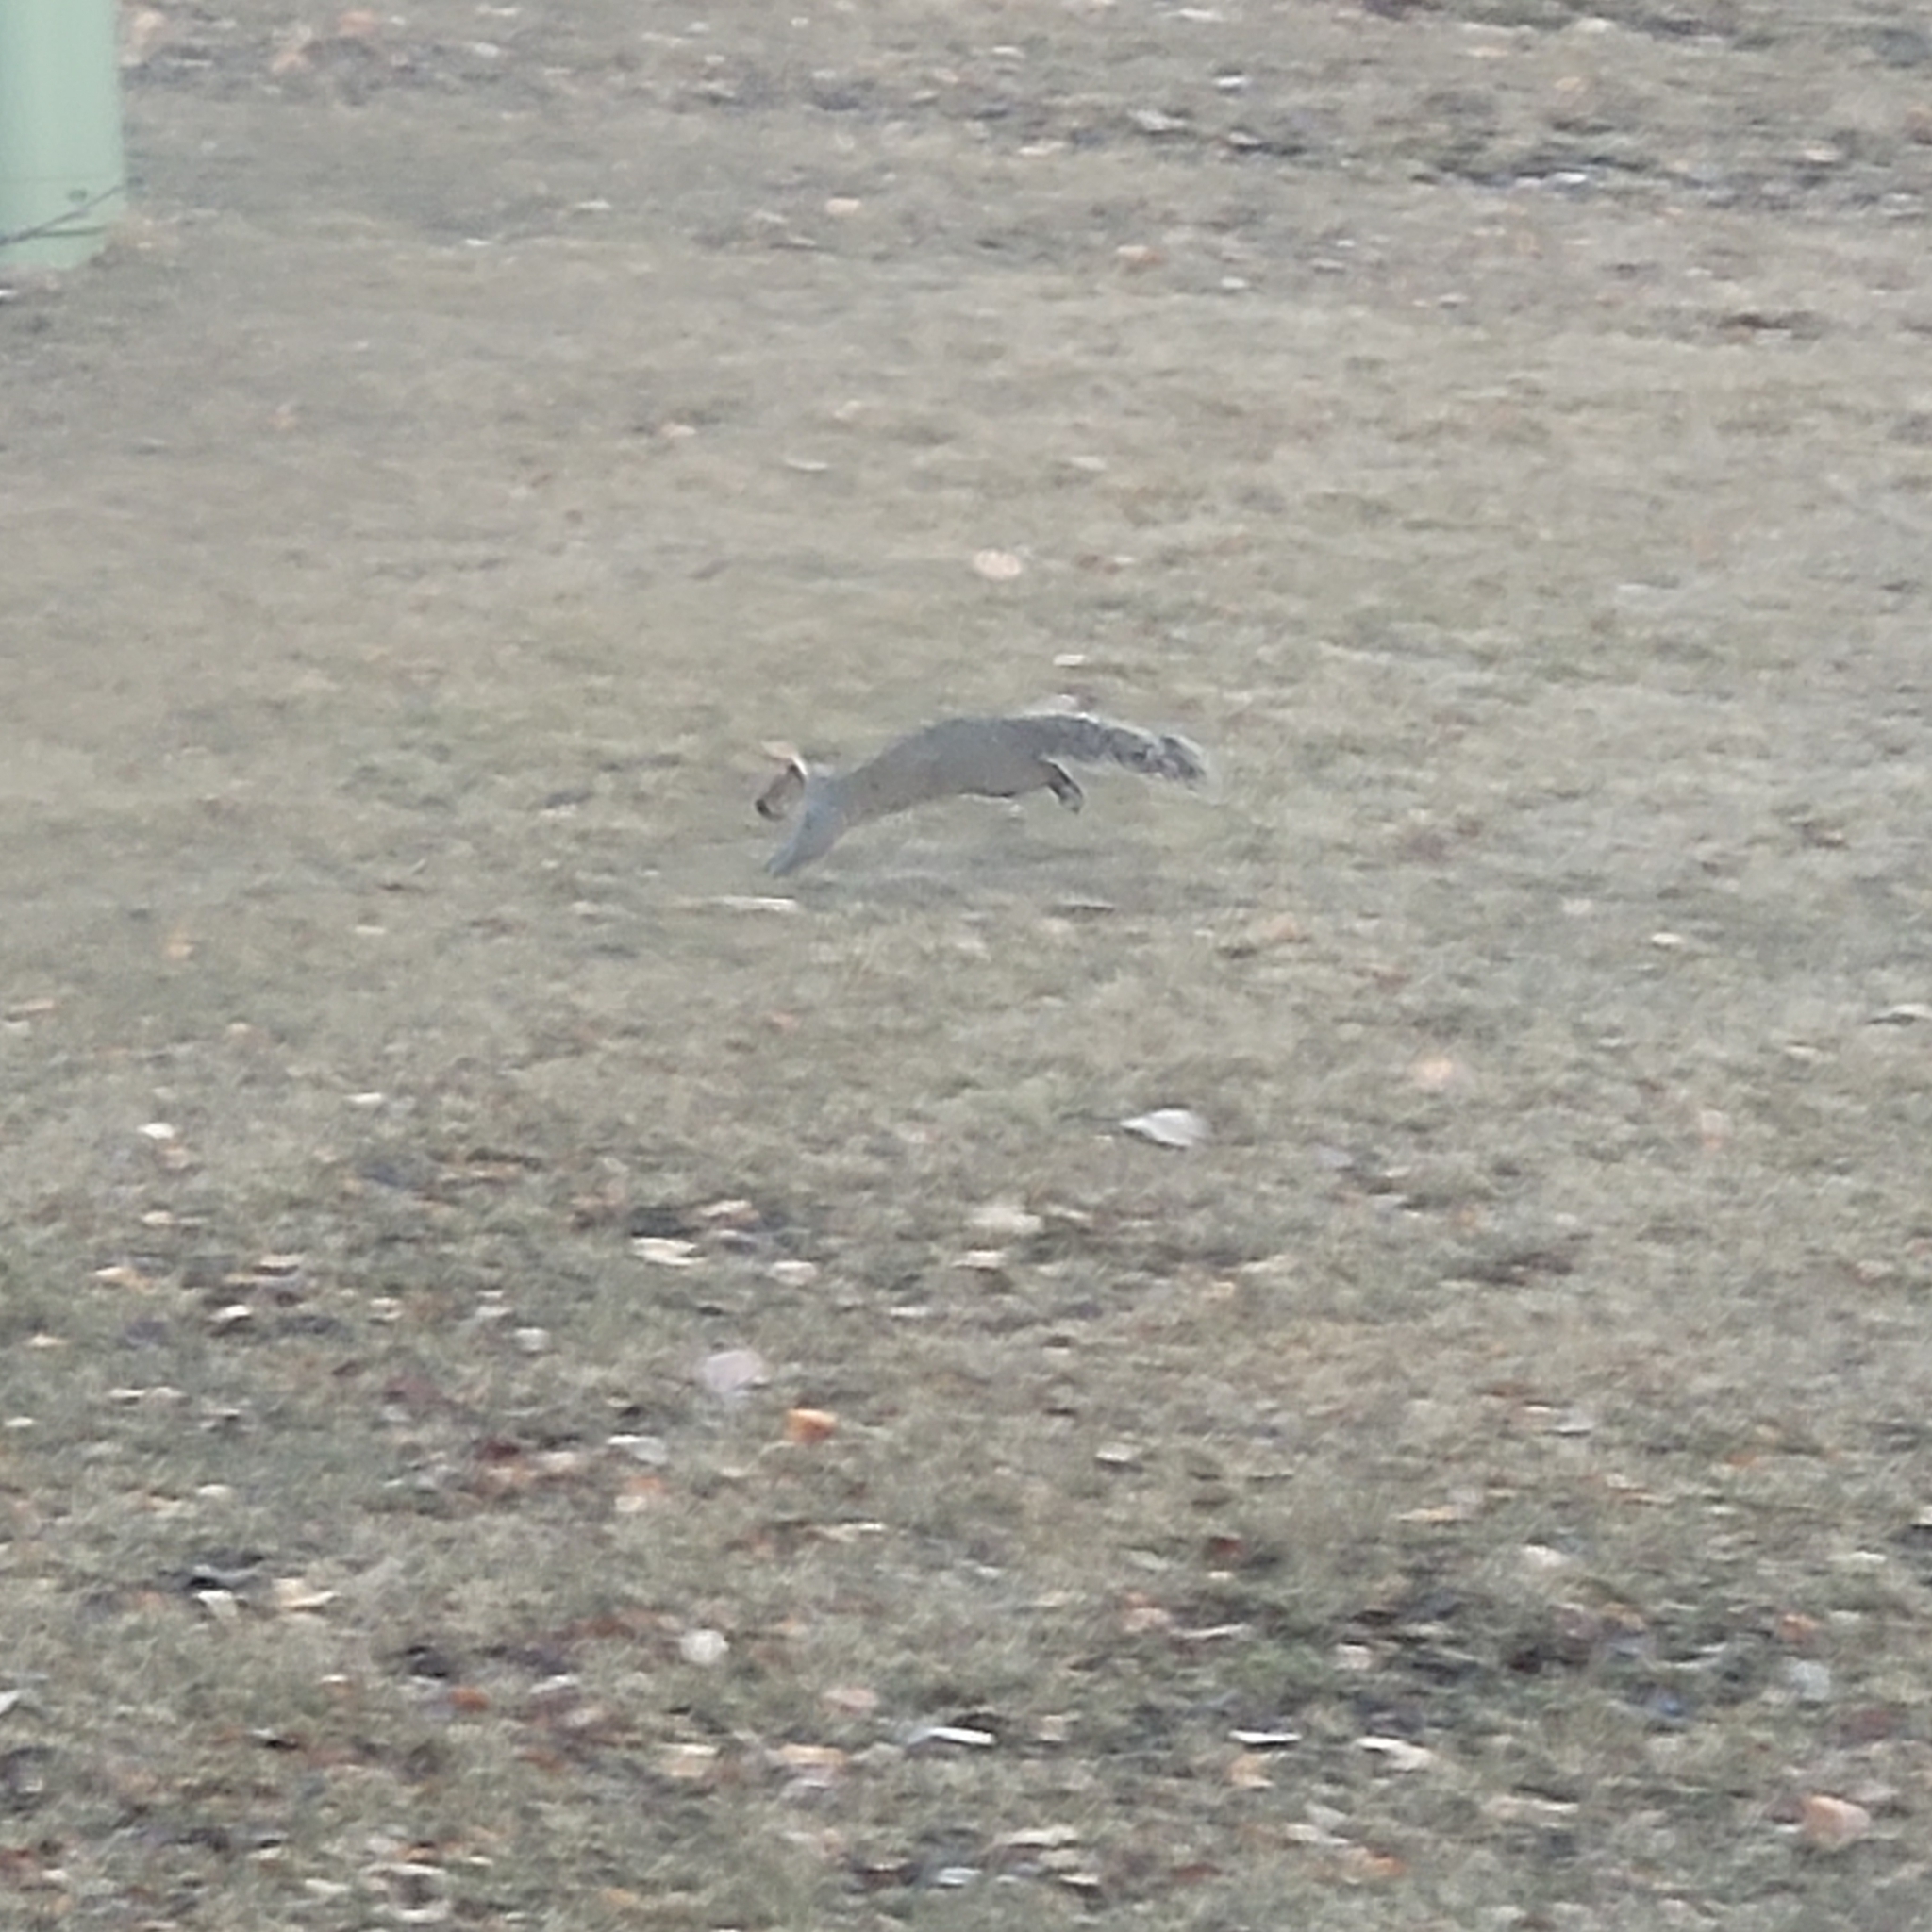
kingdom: Animalia
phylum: Chordata
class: Mammalia
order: Rodentia
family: Sciuridae
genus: Sciurus
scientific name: Sciurus carolinensis
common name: Eastern gray squirrel
